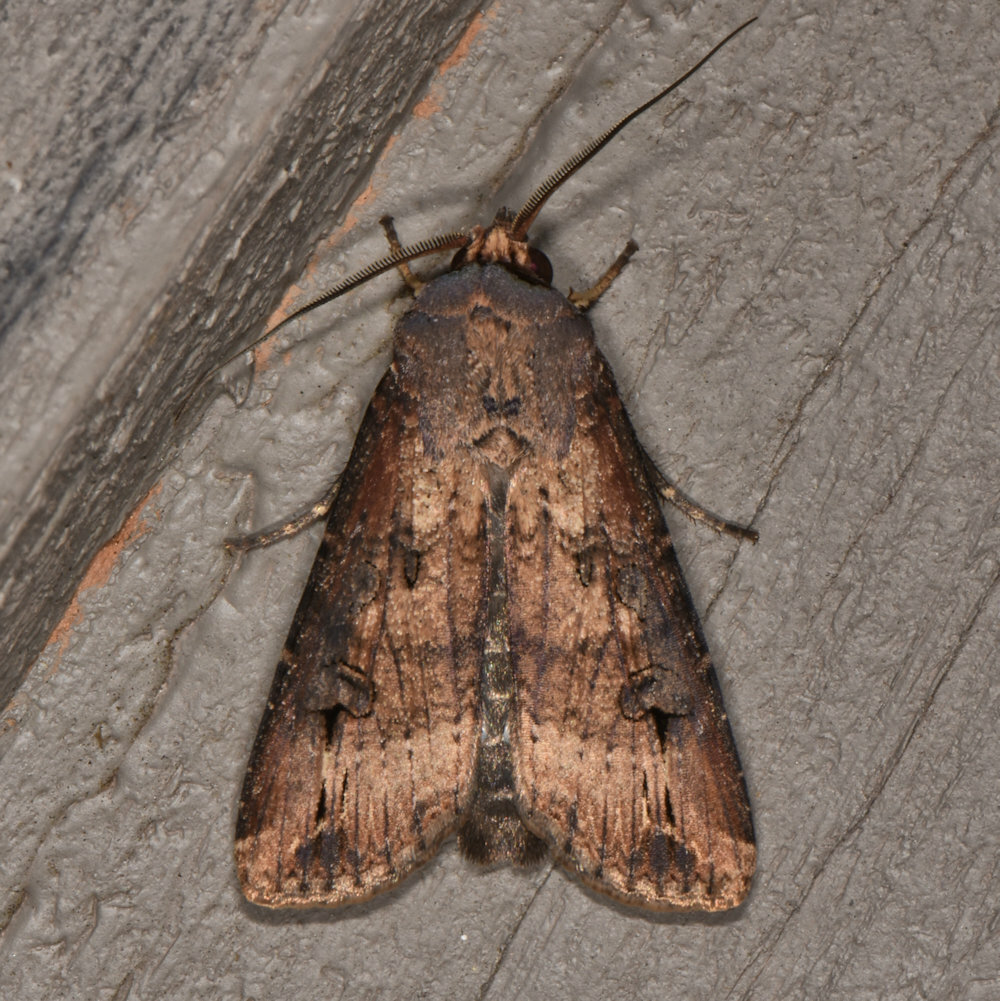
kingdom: Animalia
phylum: Arthropoda
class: Insecta
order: Lepidoptera
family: Noctuidae
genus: Agrotis
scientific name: Agrotis ipsilon
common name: Dark sword-grass
